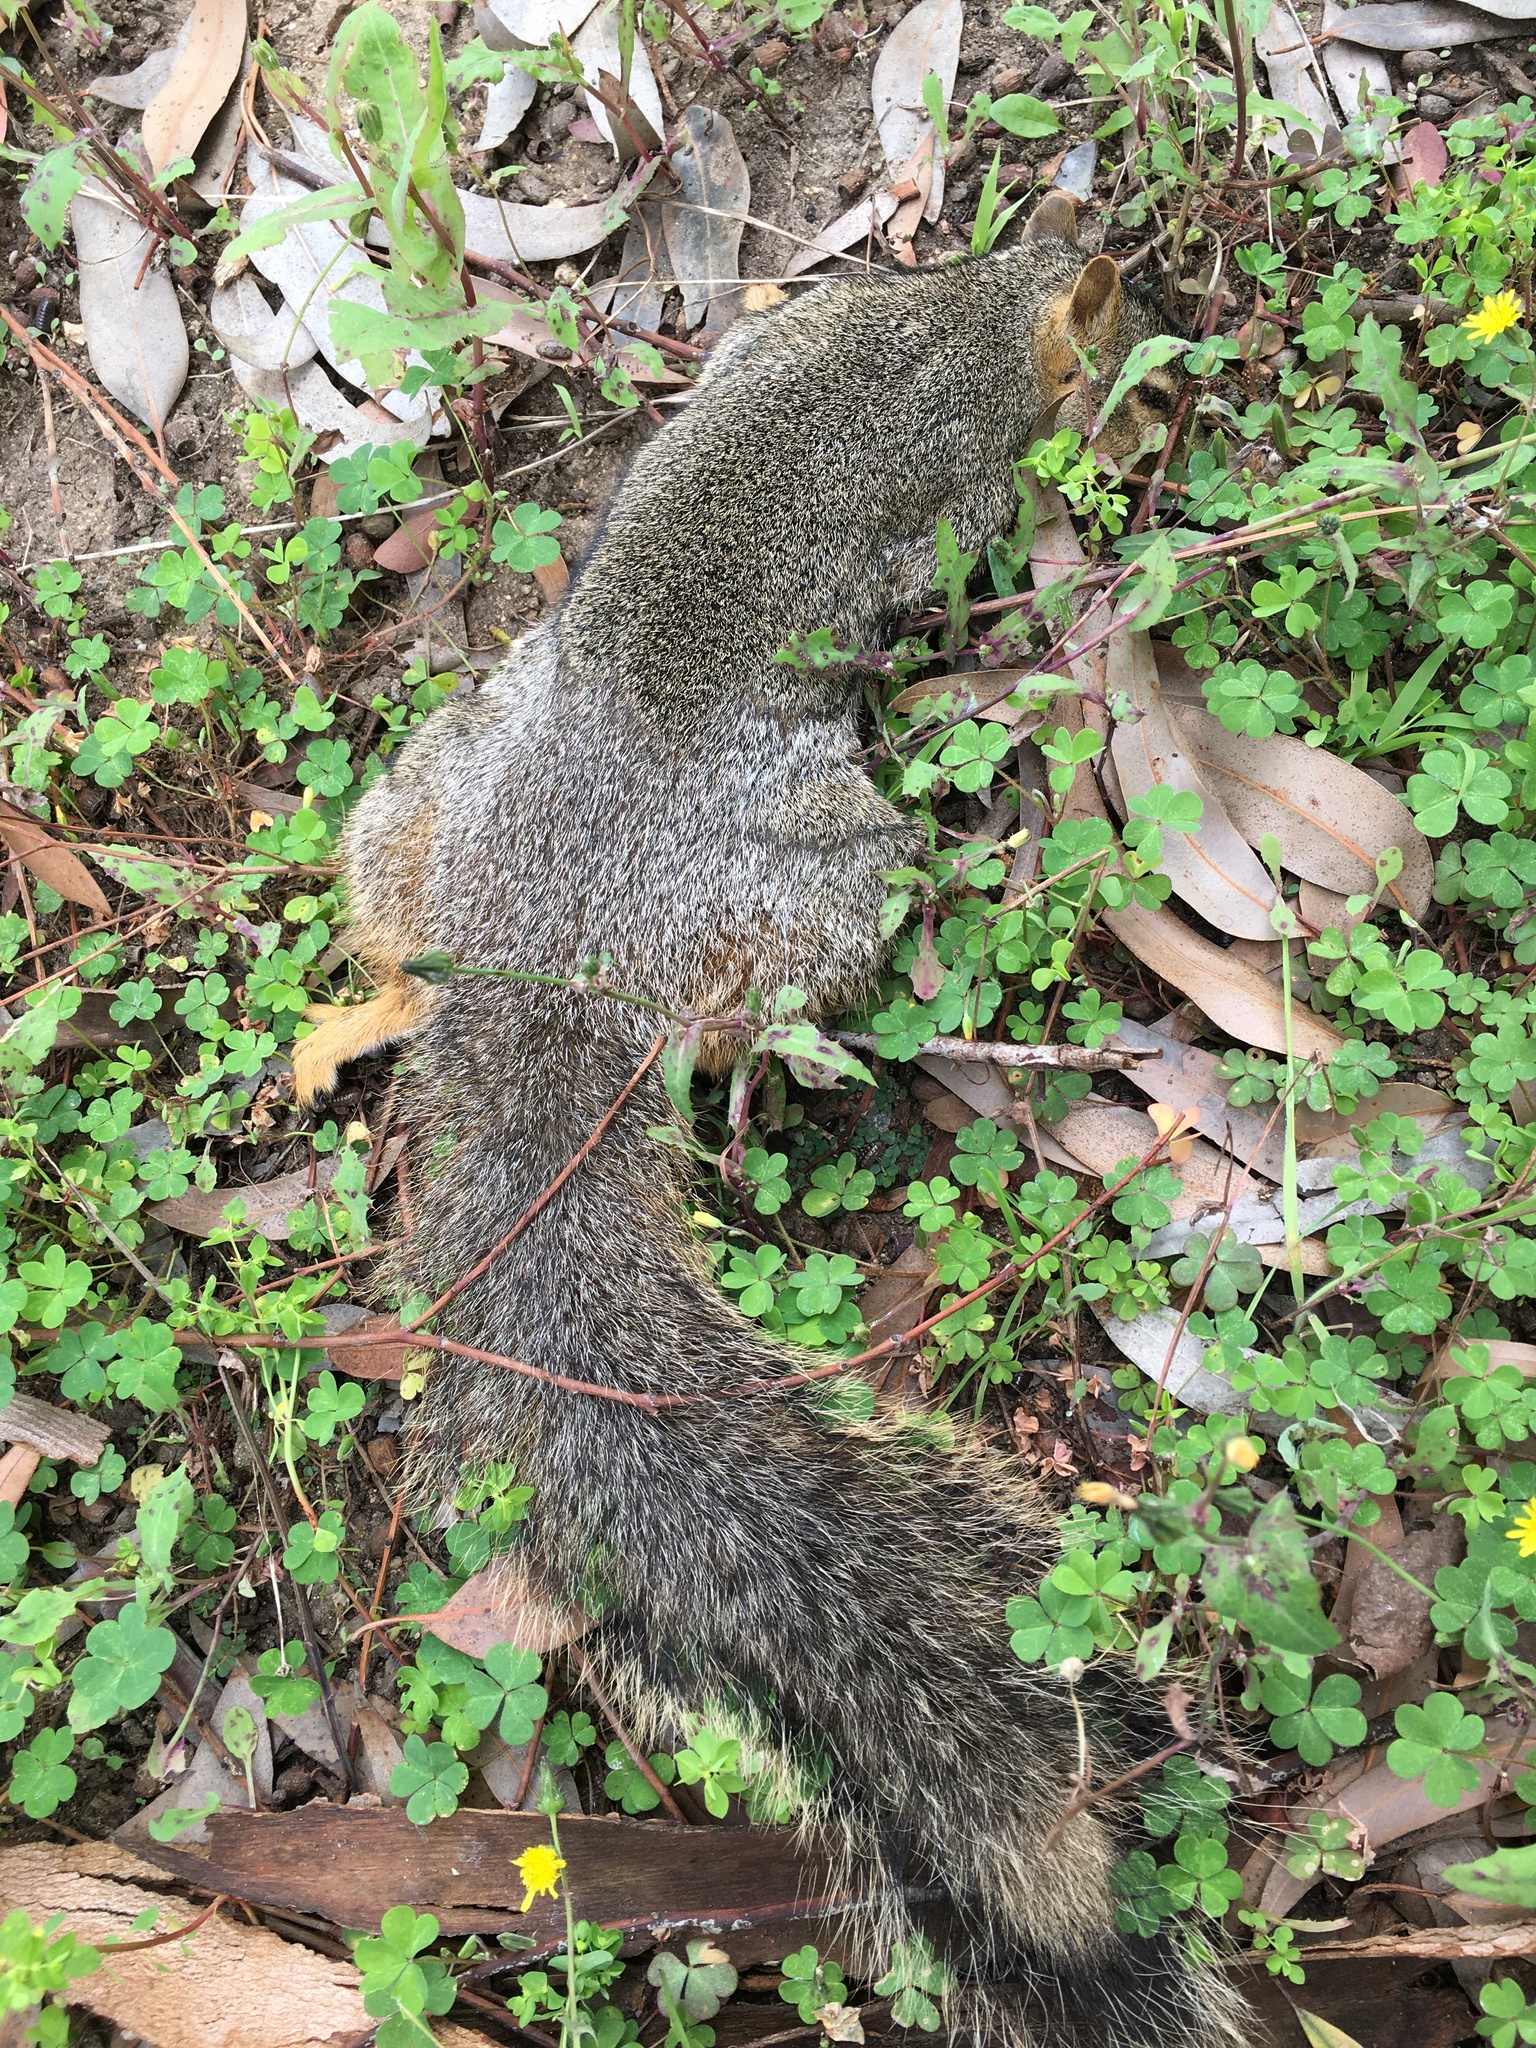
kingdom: Animalia
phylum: Chordata
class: Mammalia
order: Rodentia
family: Sciuridae
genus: Sciurus
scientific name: Sciurus niger
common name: Fox squirrel
